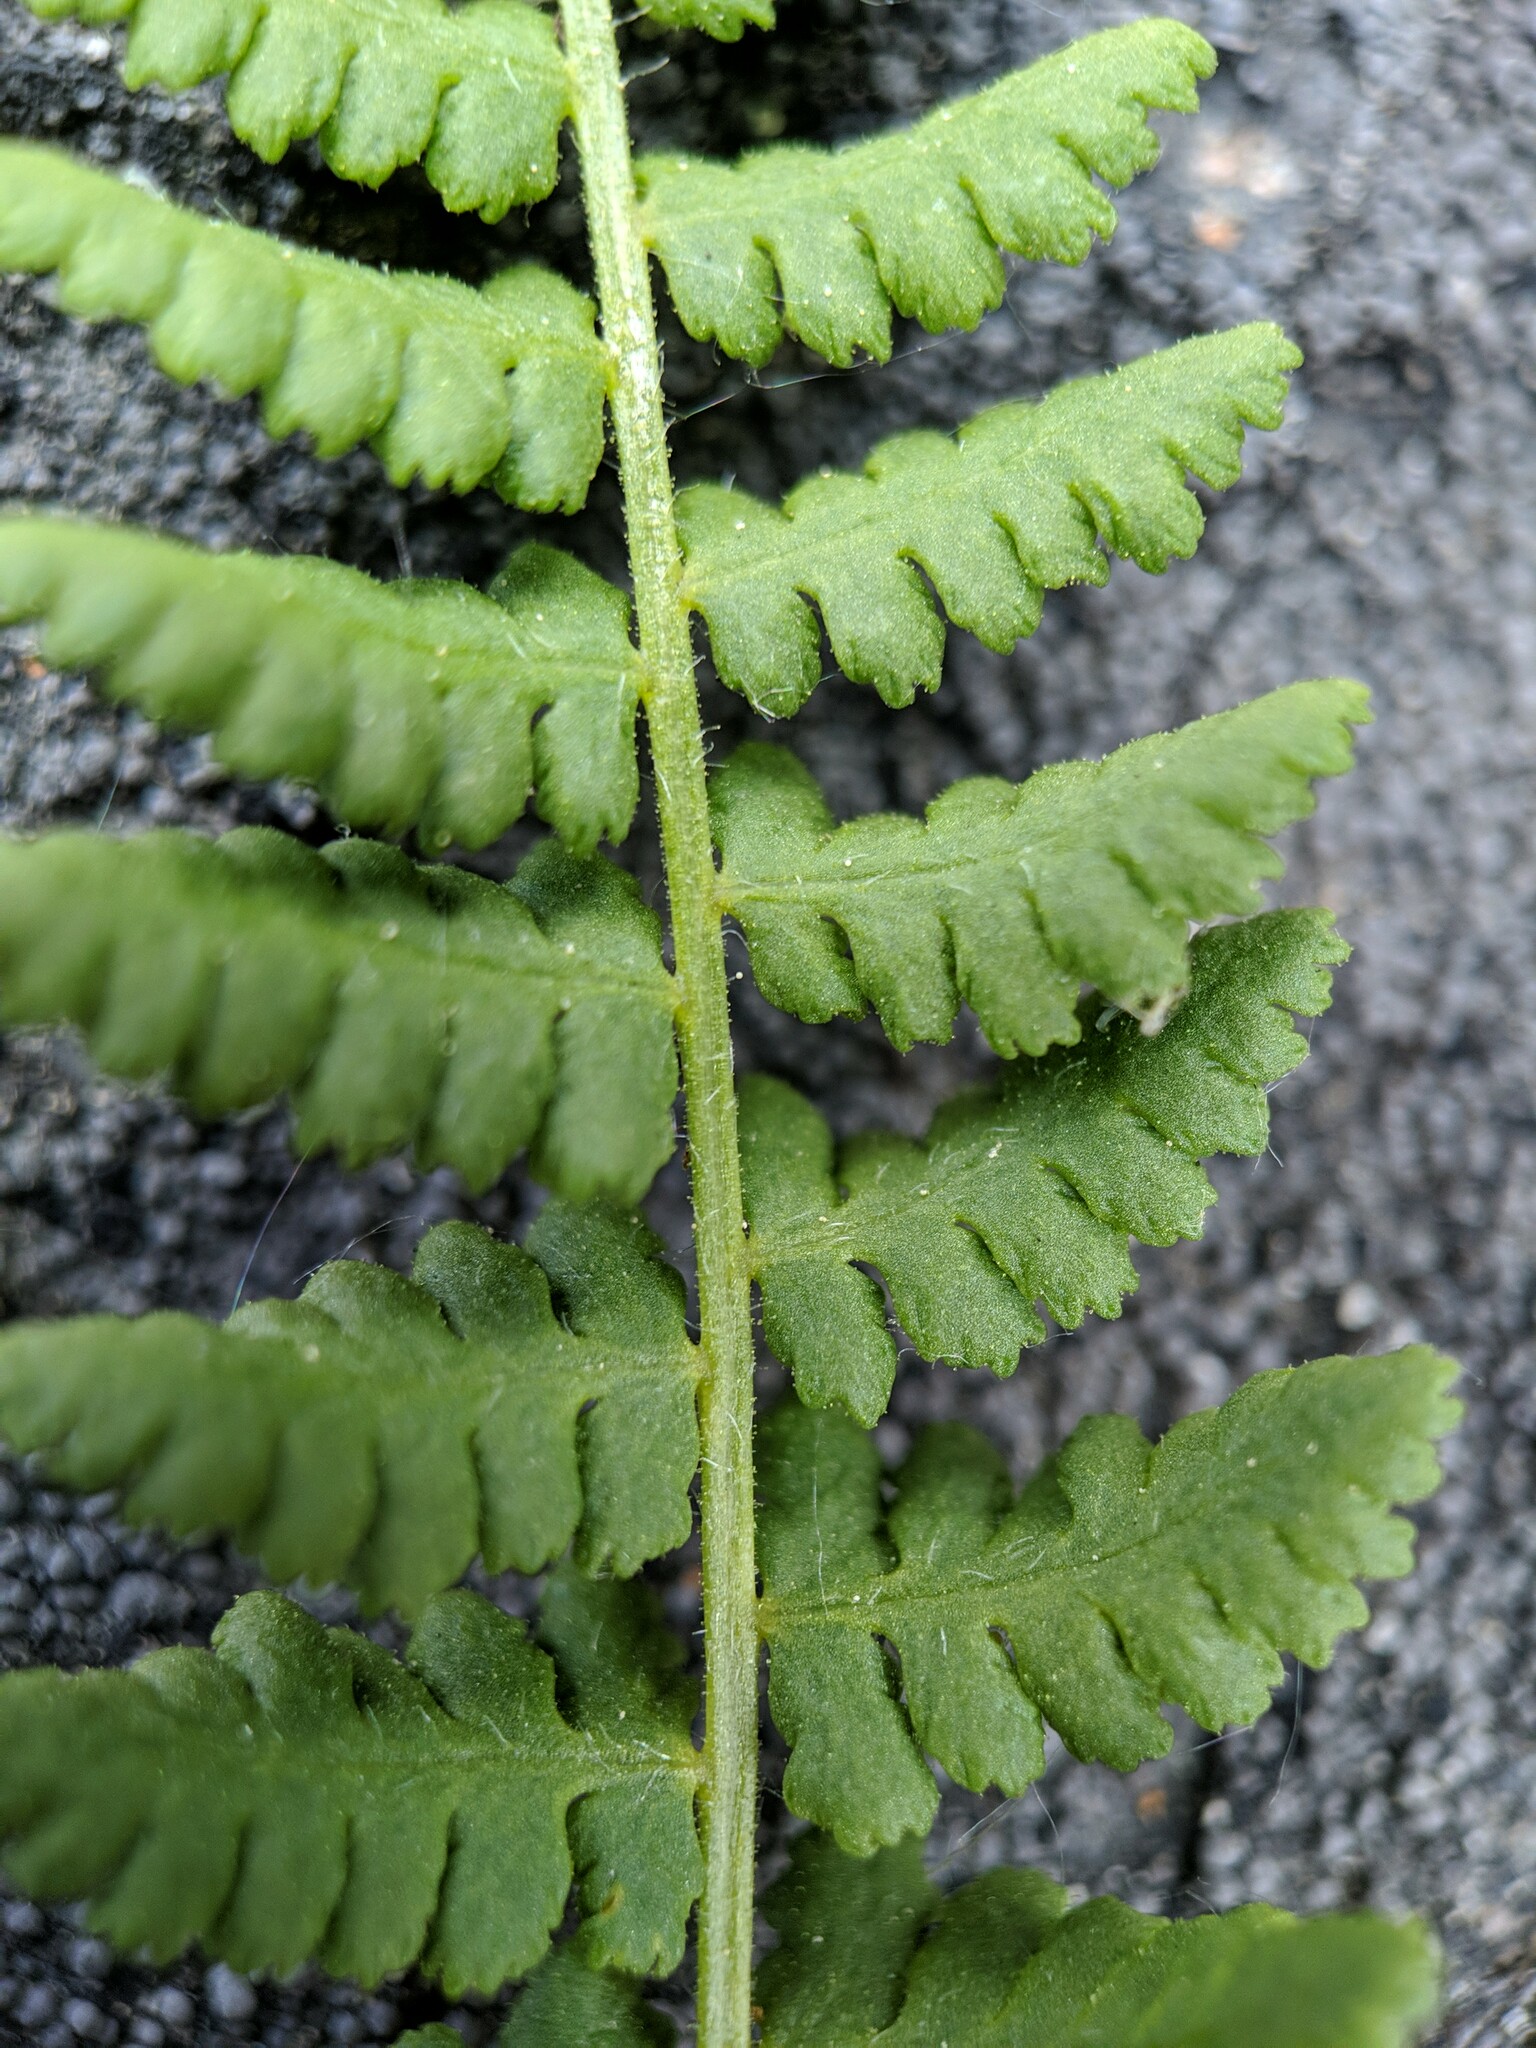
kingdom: Plantae
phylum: Tracheophyta
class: Polypodiopsida
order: Polypodiales
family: Woodsiaceae
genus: Physematium
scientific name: Physematium scopulinum
